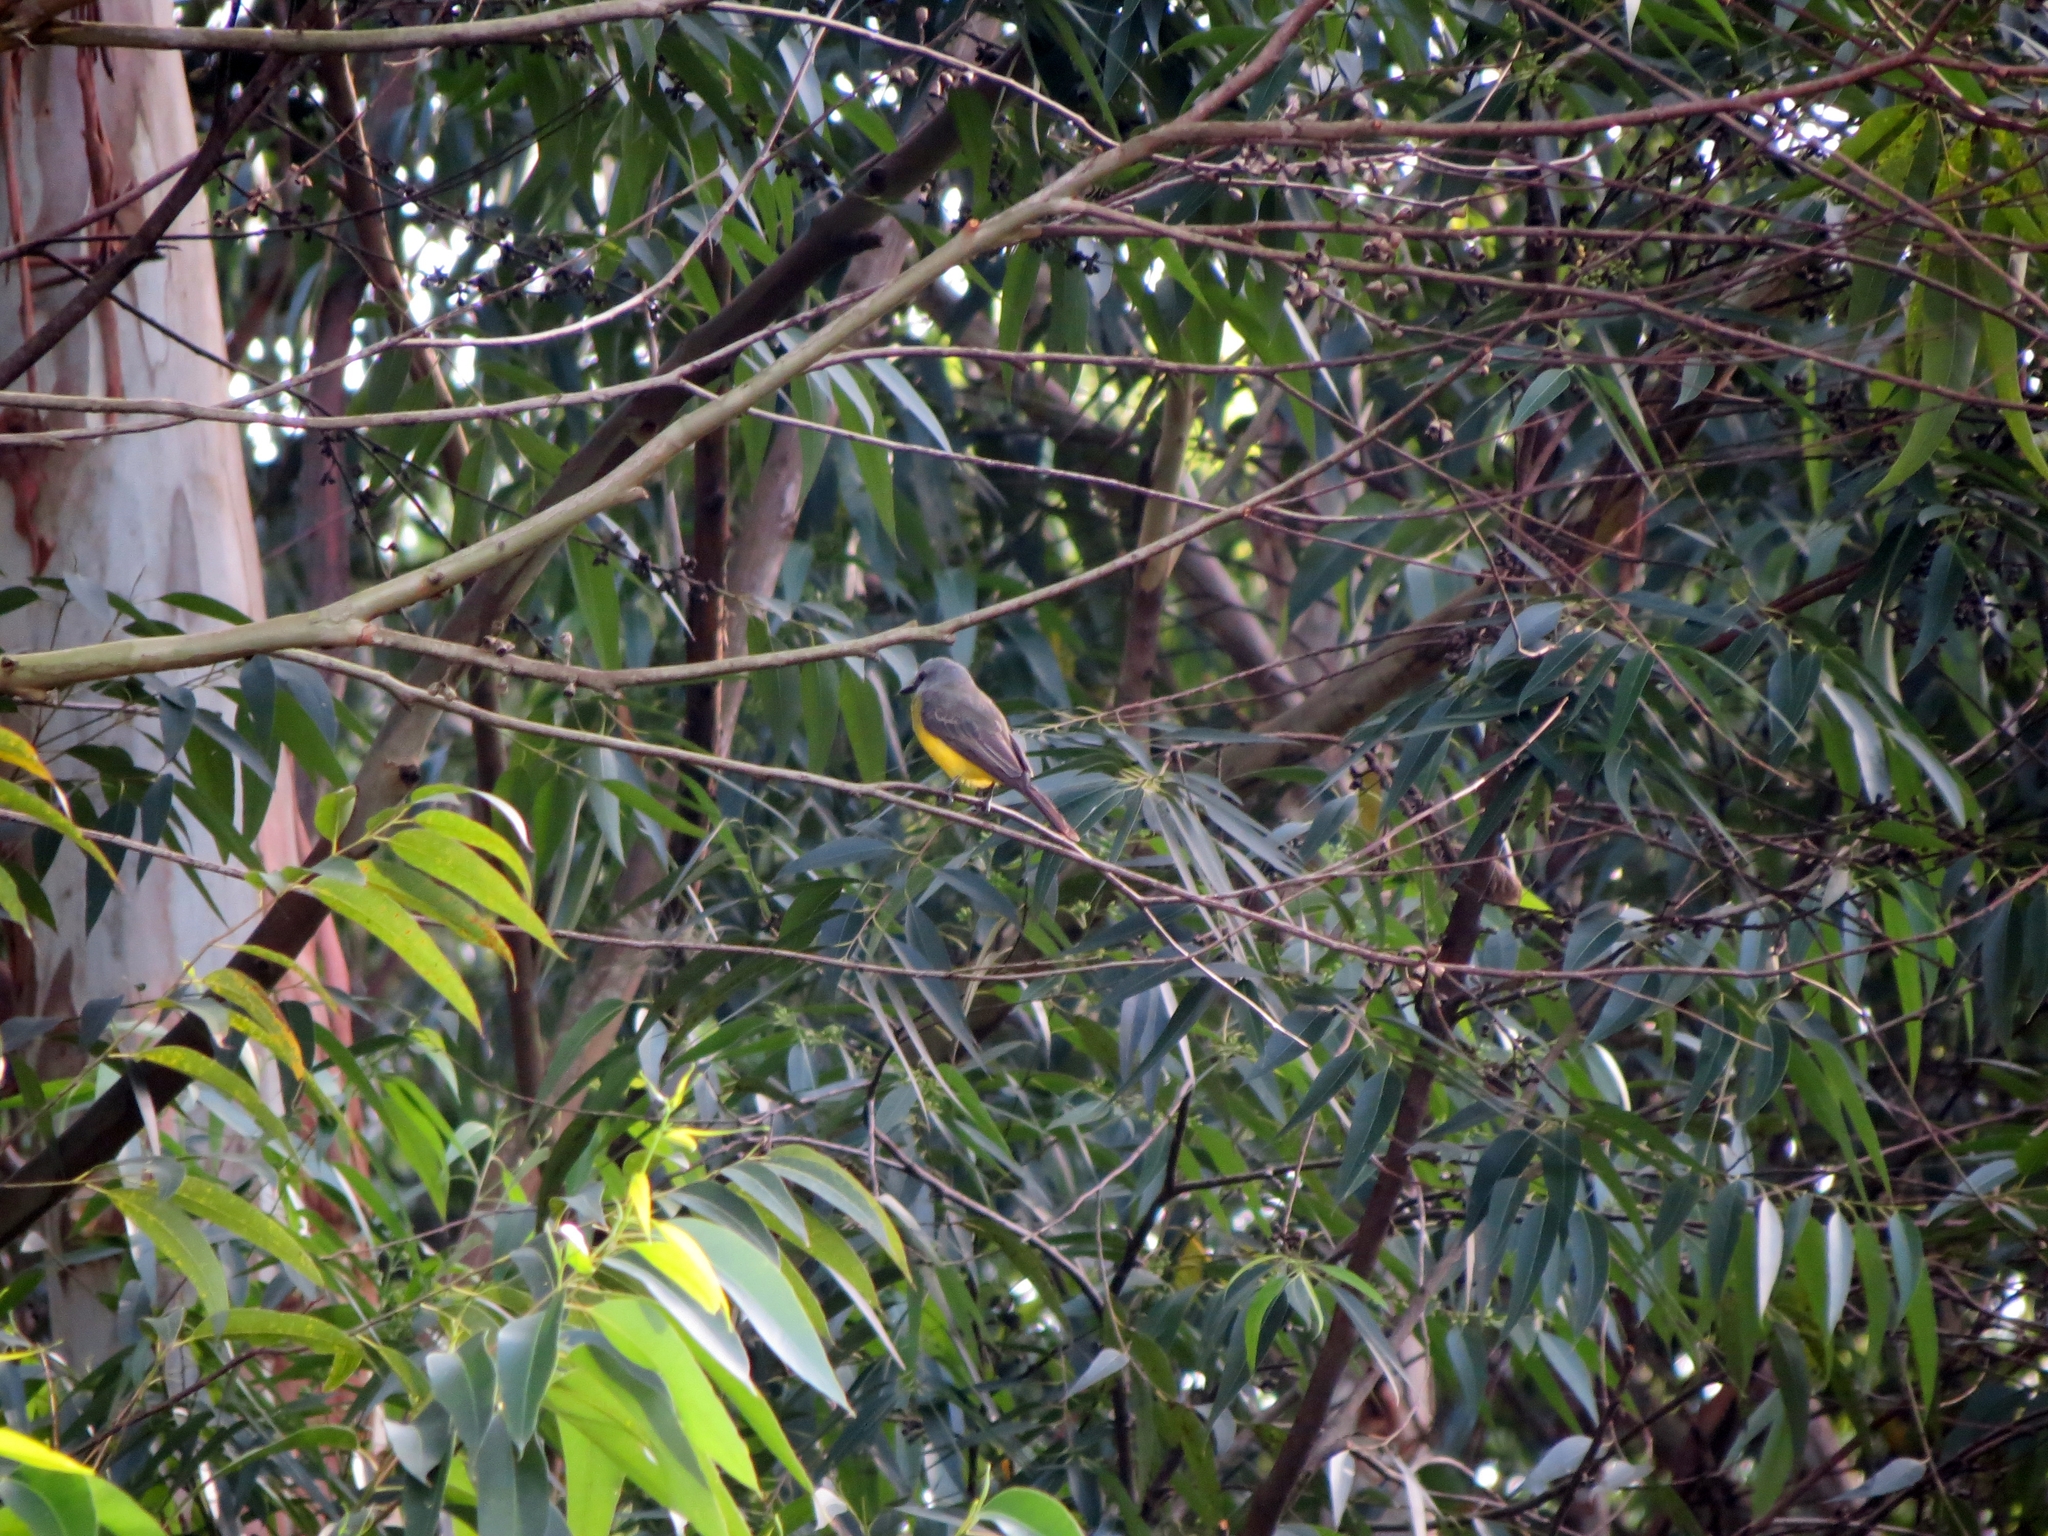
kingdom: Animalia
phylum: Chordata
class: Aves
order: Passeriformes
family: Tyrannidae
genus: Tyrannus
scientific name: Tyrannus melancholicus
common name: Tropical kingbird
